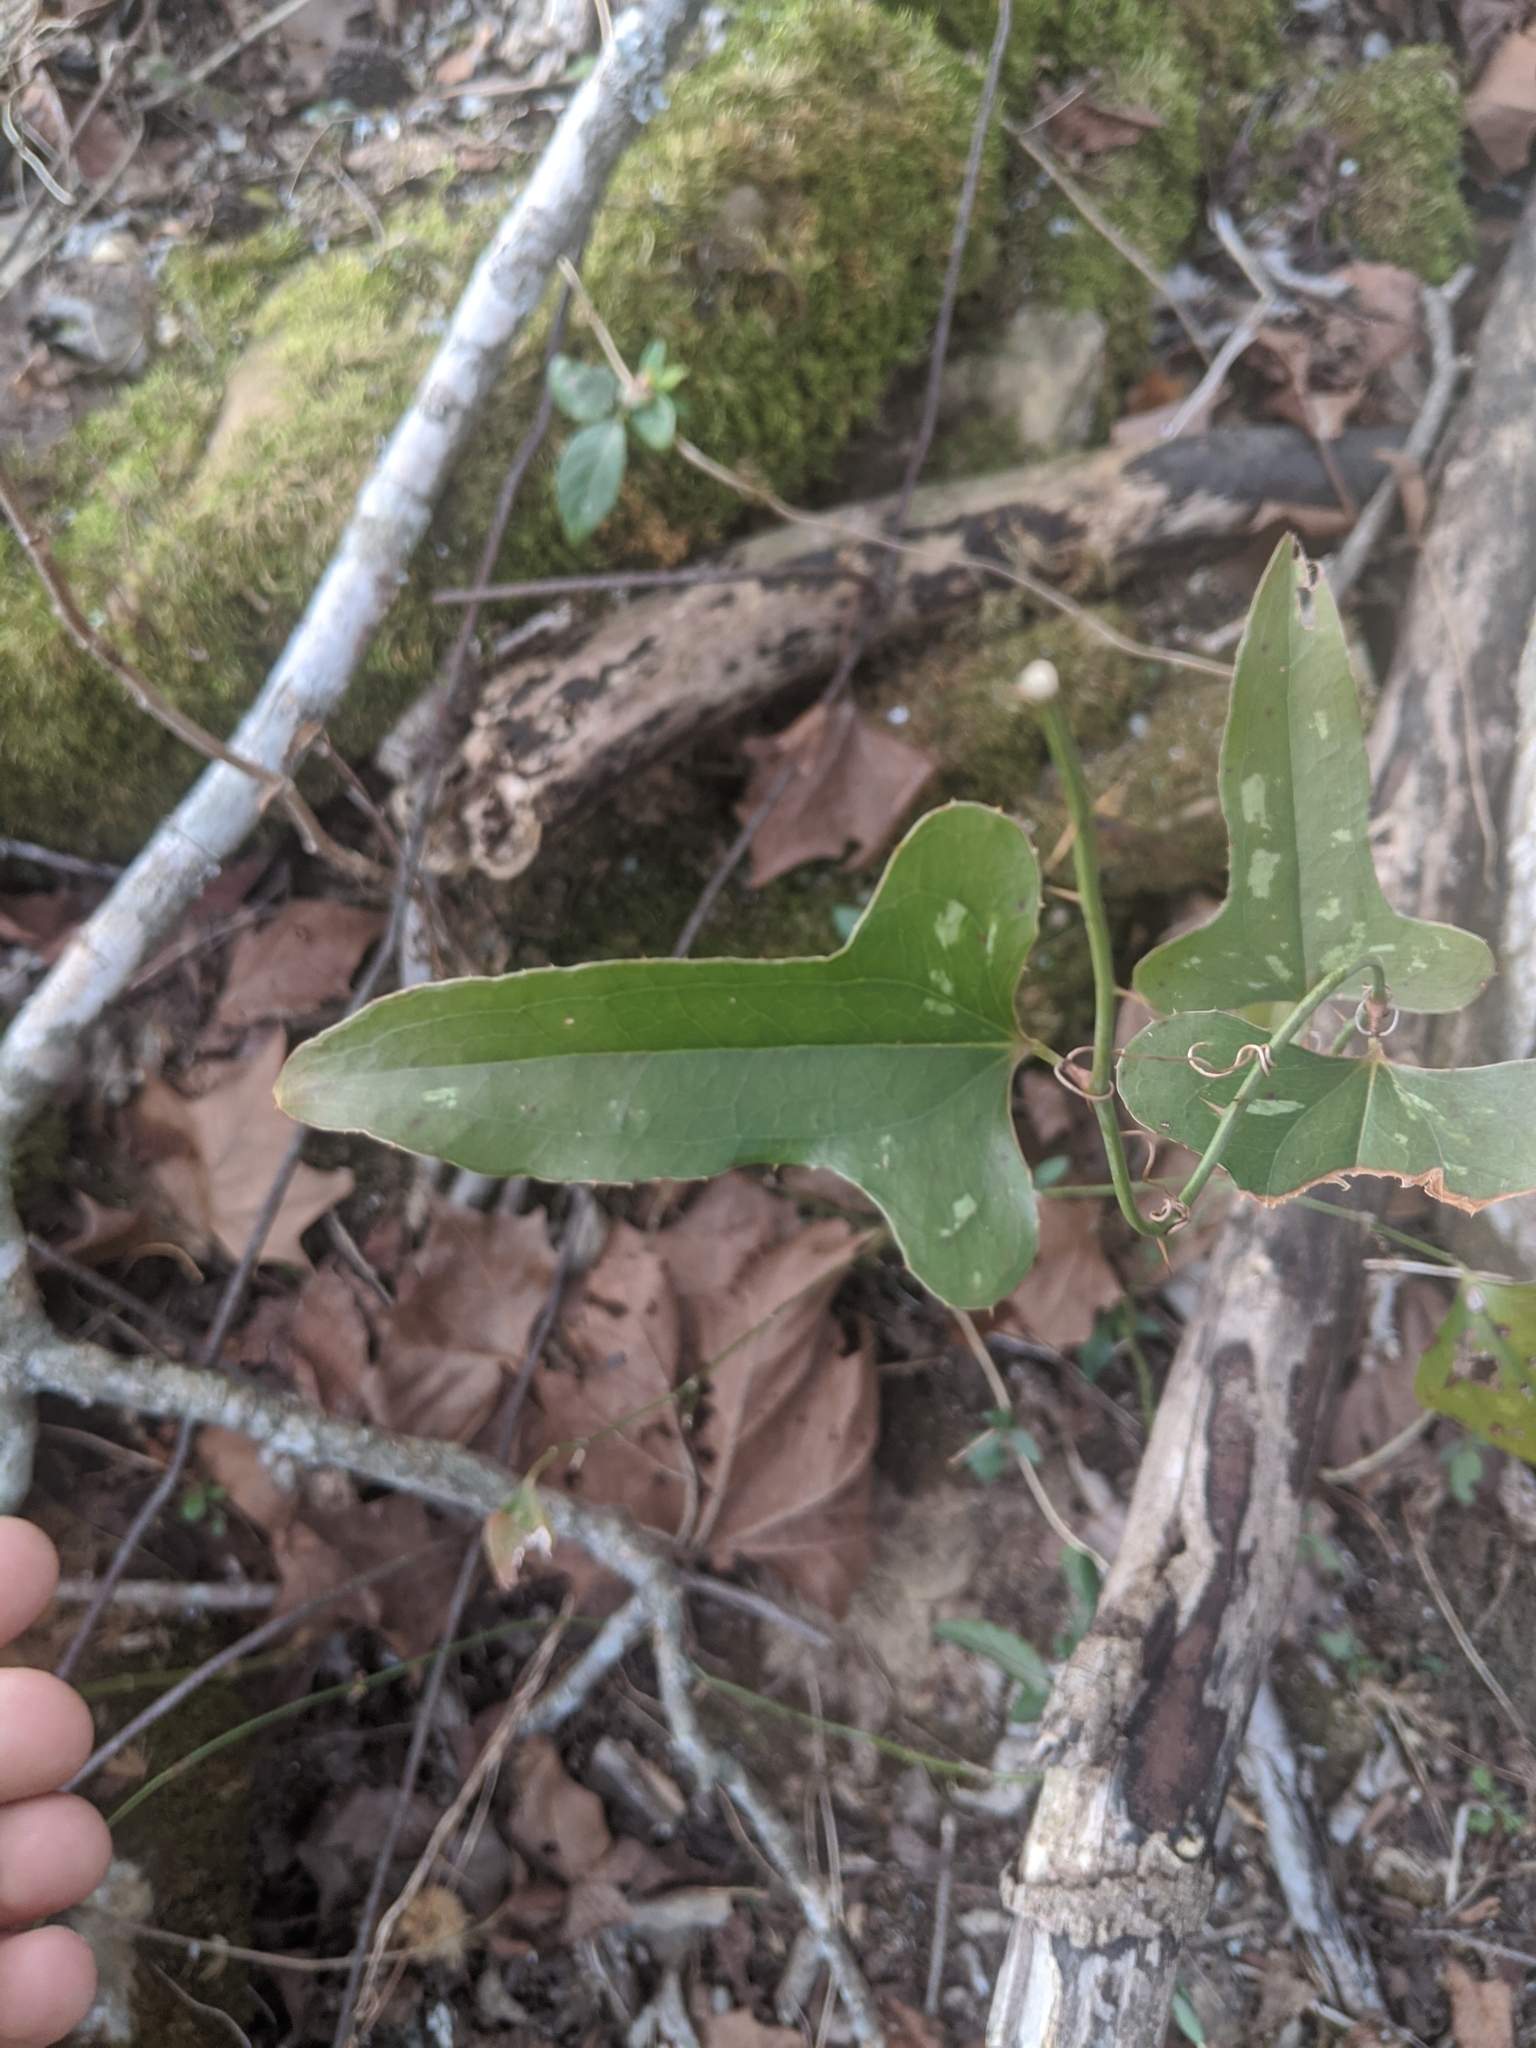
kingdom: Plantae
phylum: Tracheophyta
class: Liliopsida
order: Liliales
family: Smilacaceae
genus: Smilax
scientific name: Smilax bona-nox
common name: Catbrier
